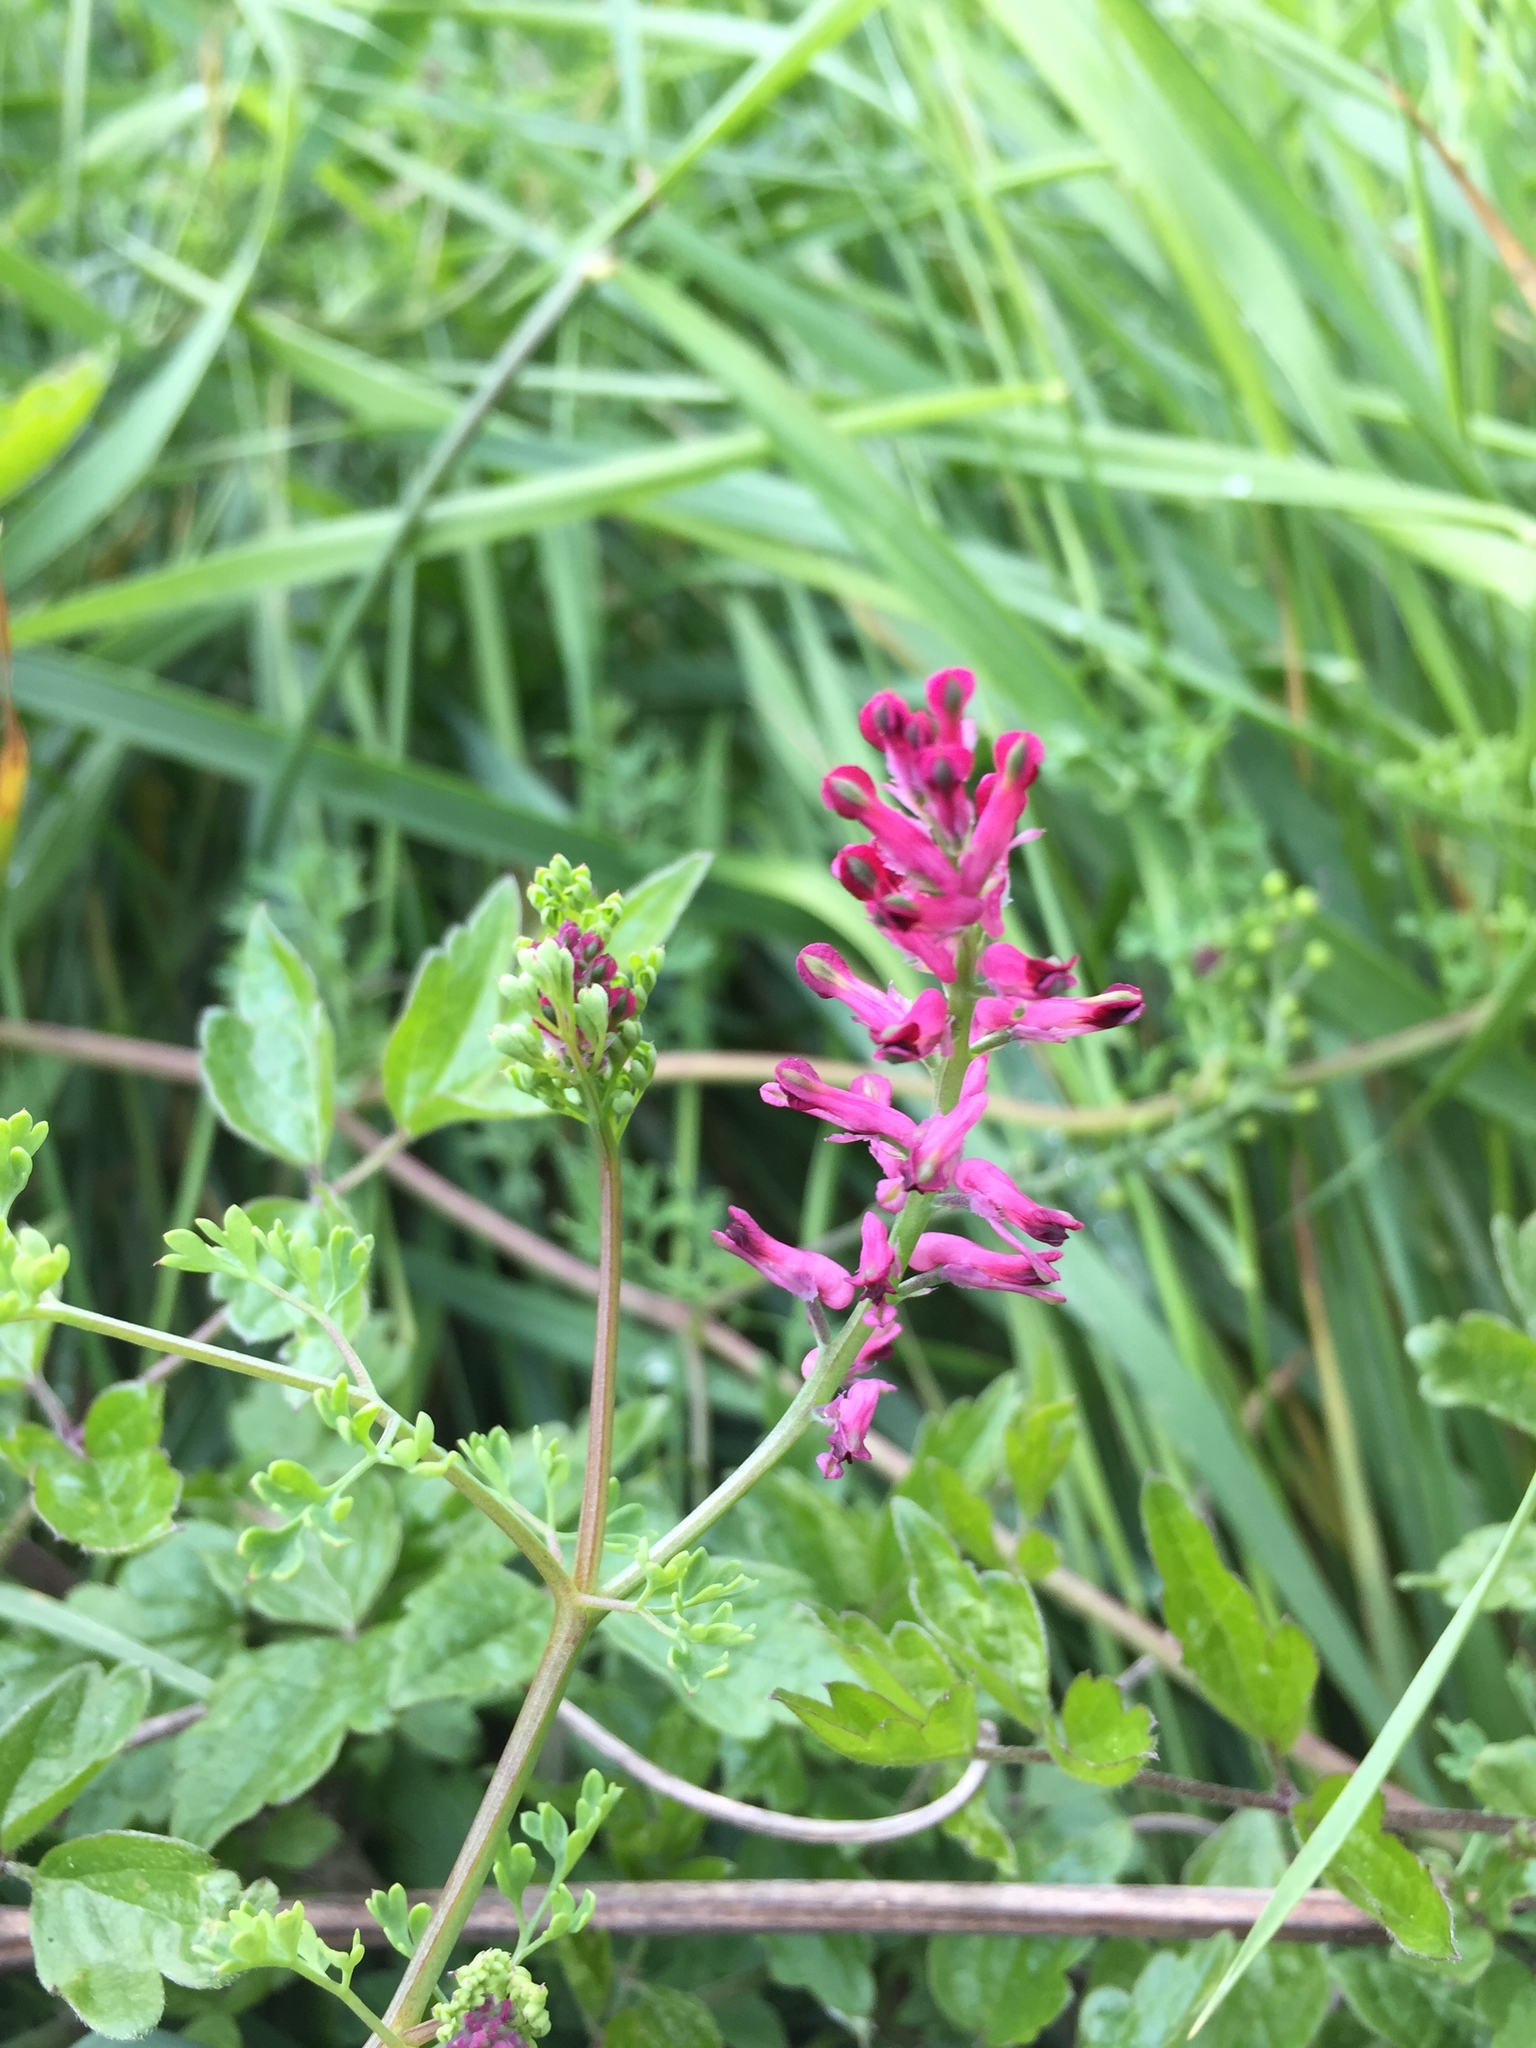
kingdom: Plantae
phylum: Tracheophyta
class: Magnoliopsida
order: Ranunculales
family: Papaveraceae
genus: Fumaria
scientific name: Fumaria officinalis
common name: Common fumitory
